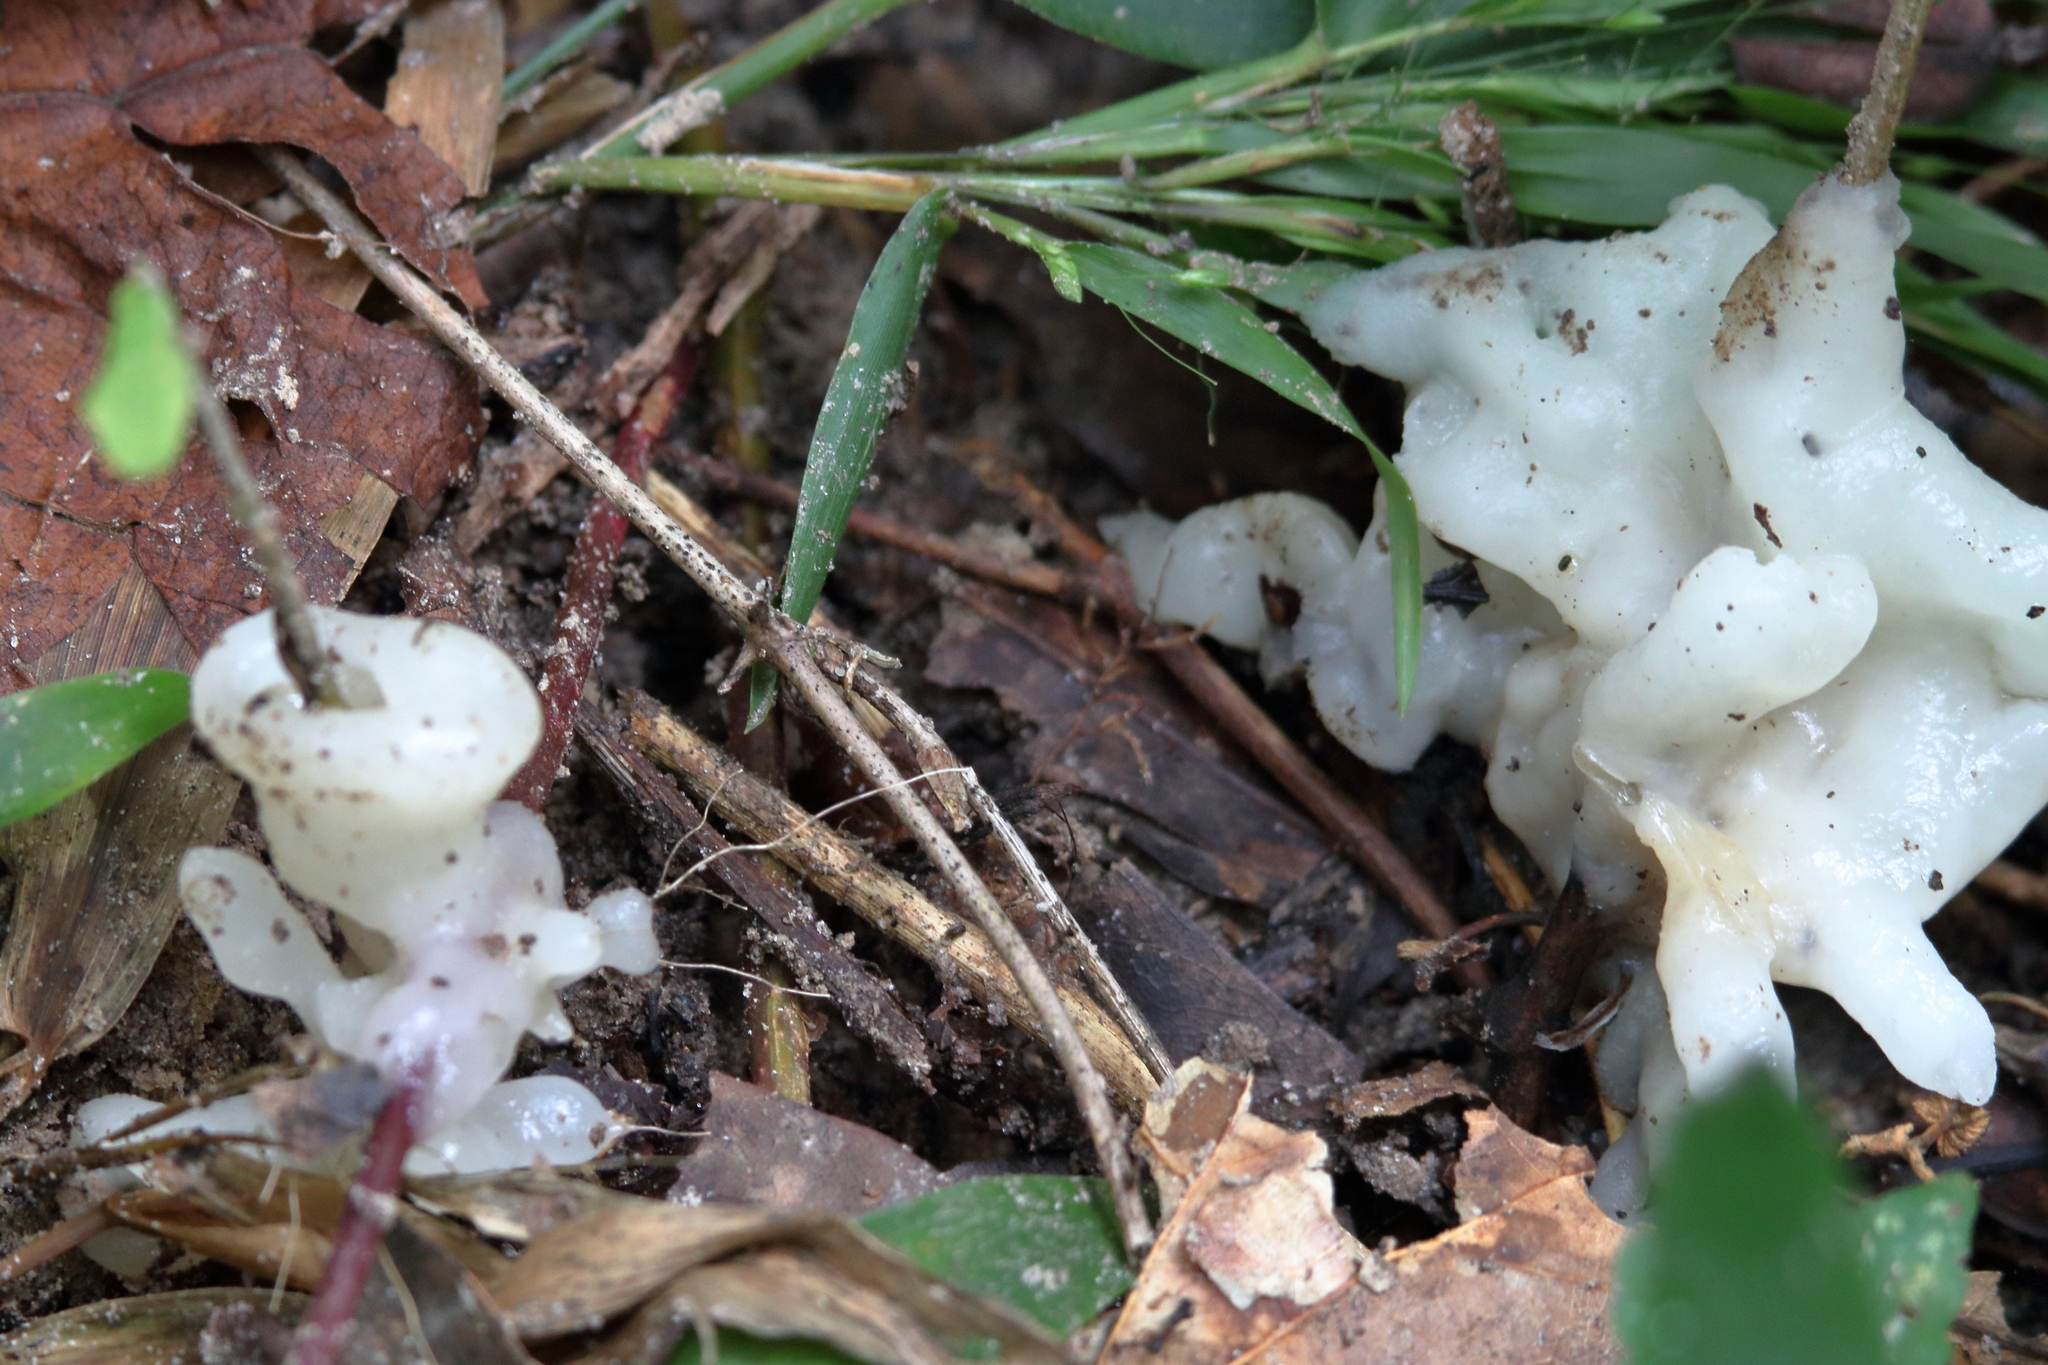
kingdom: Fungi
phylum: Basidiomycota
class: Agaricomycetes
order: Sebacinales
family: Sebacinaceae
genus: Helvellosebacina
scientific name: Helvellosebacina concrescens
